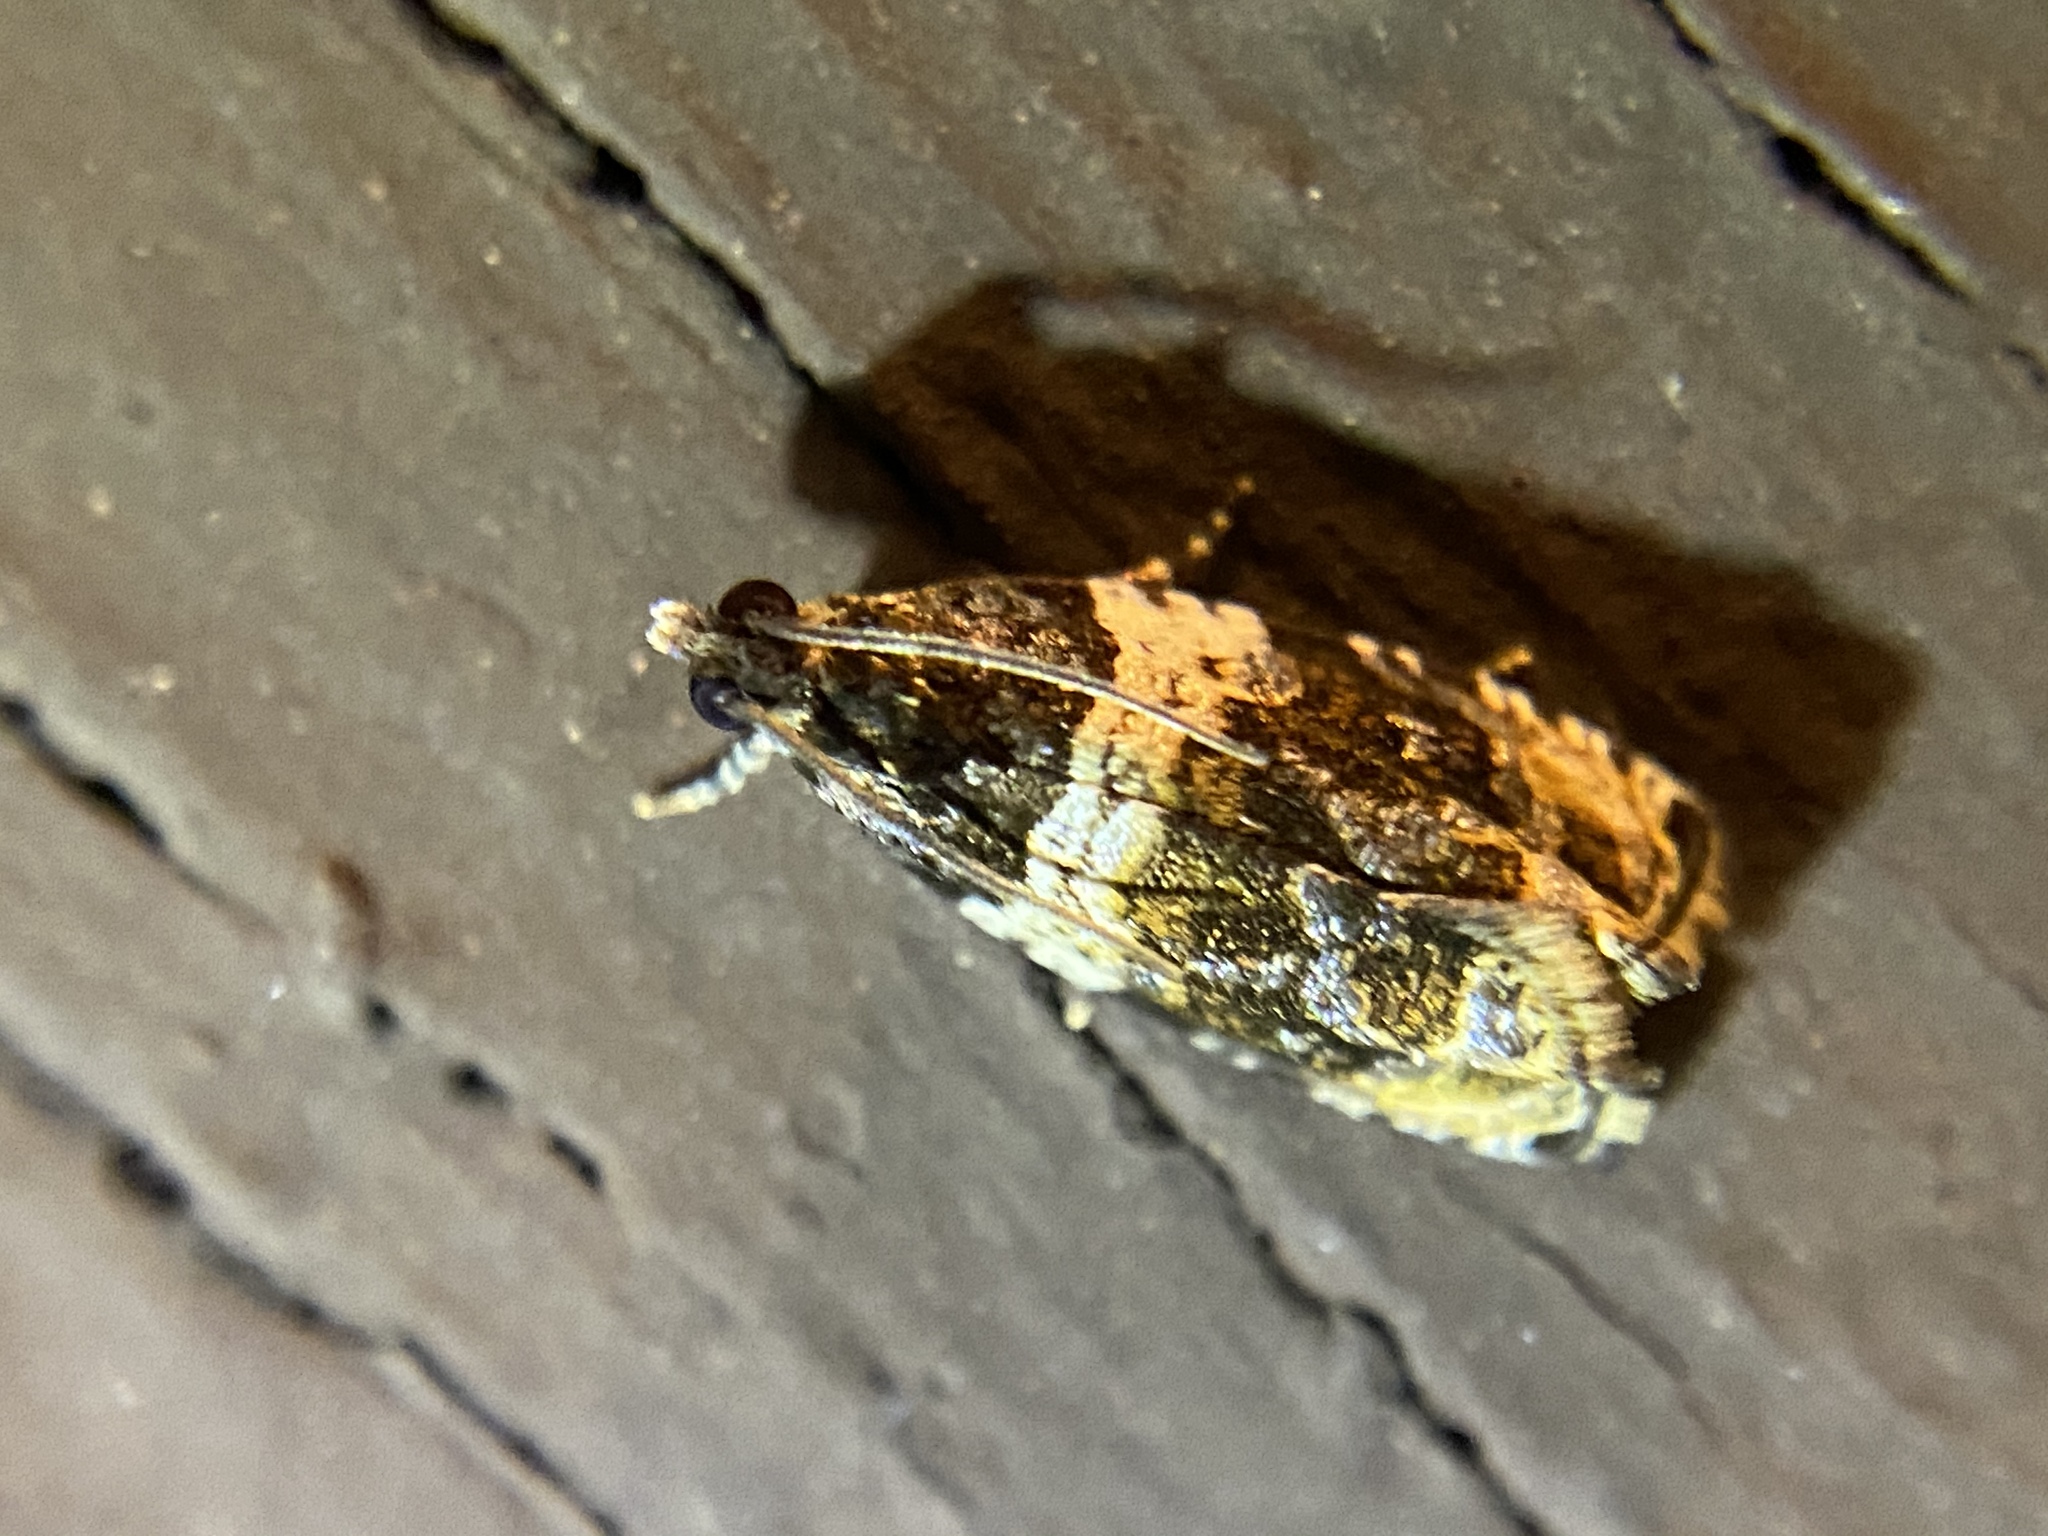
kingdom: Animalia
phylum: Arthropoda
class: Insecta
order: Lepidoptera
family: Tortricidae
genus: Olethreutes
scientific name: Olethreutes fasciatana
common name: Banded olethreutes moth
